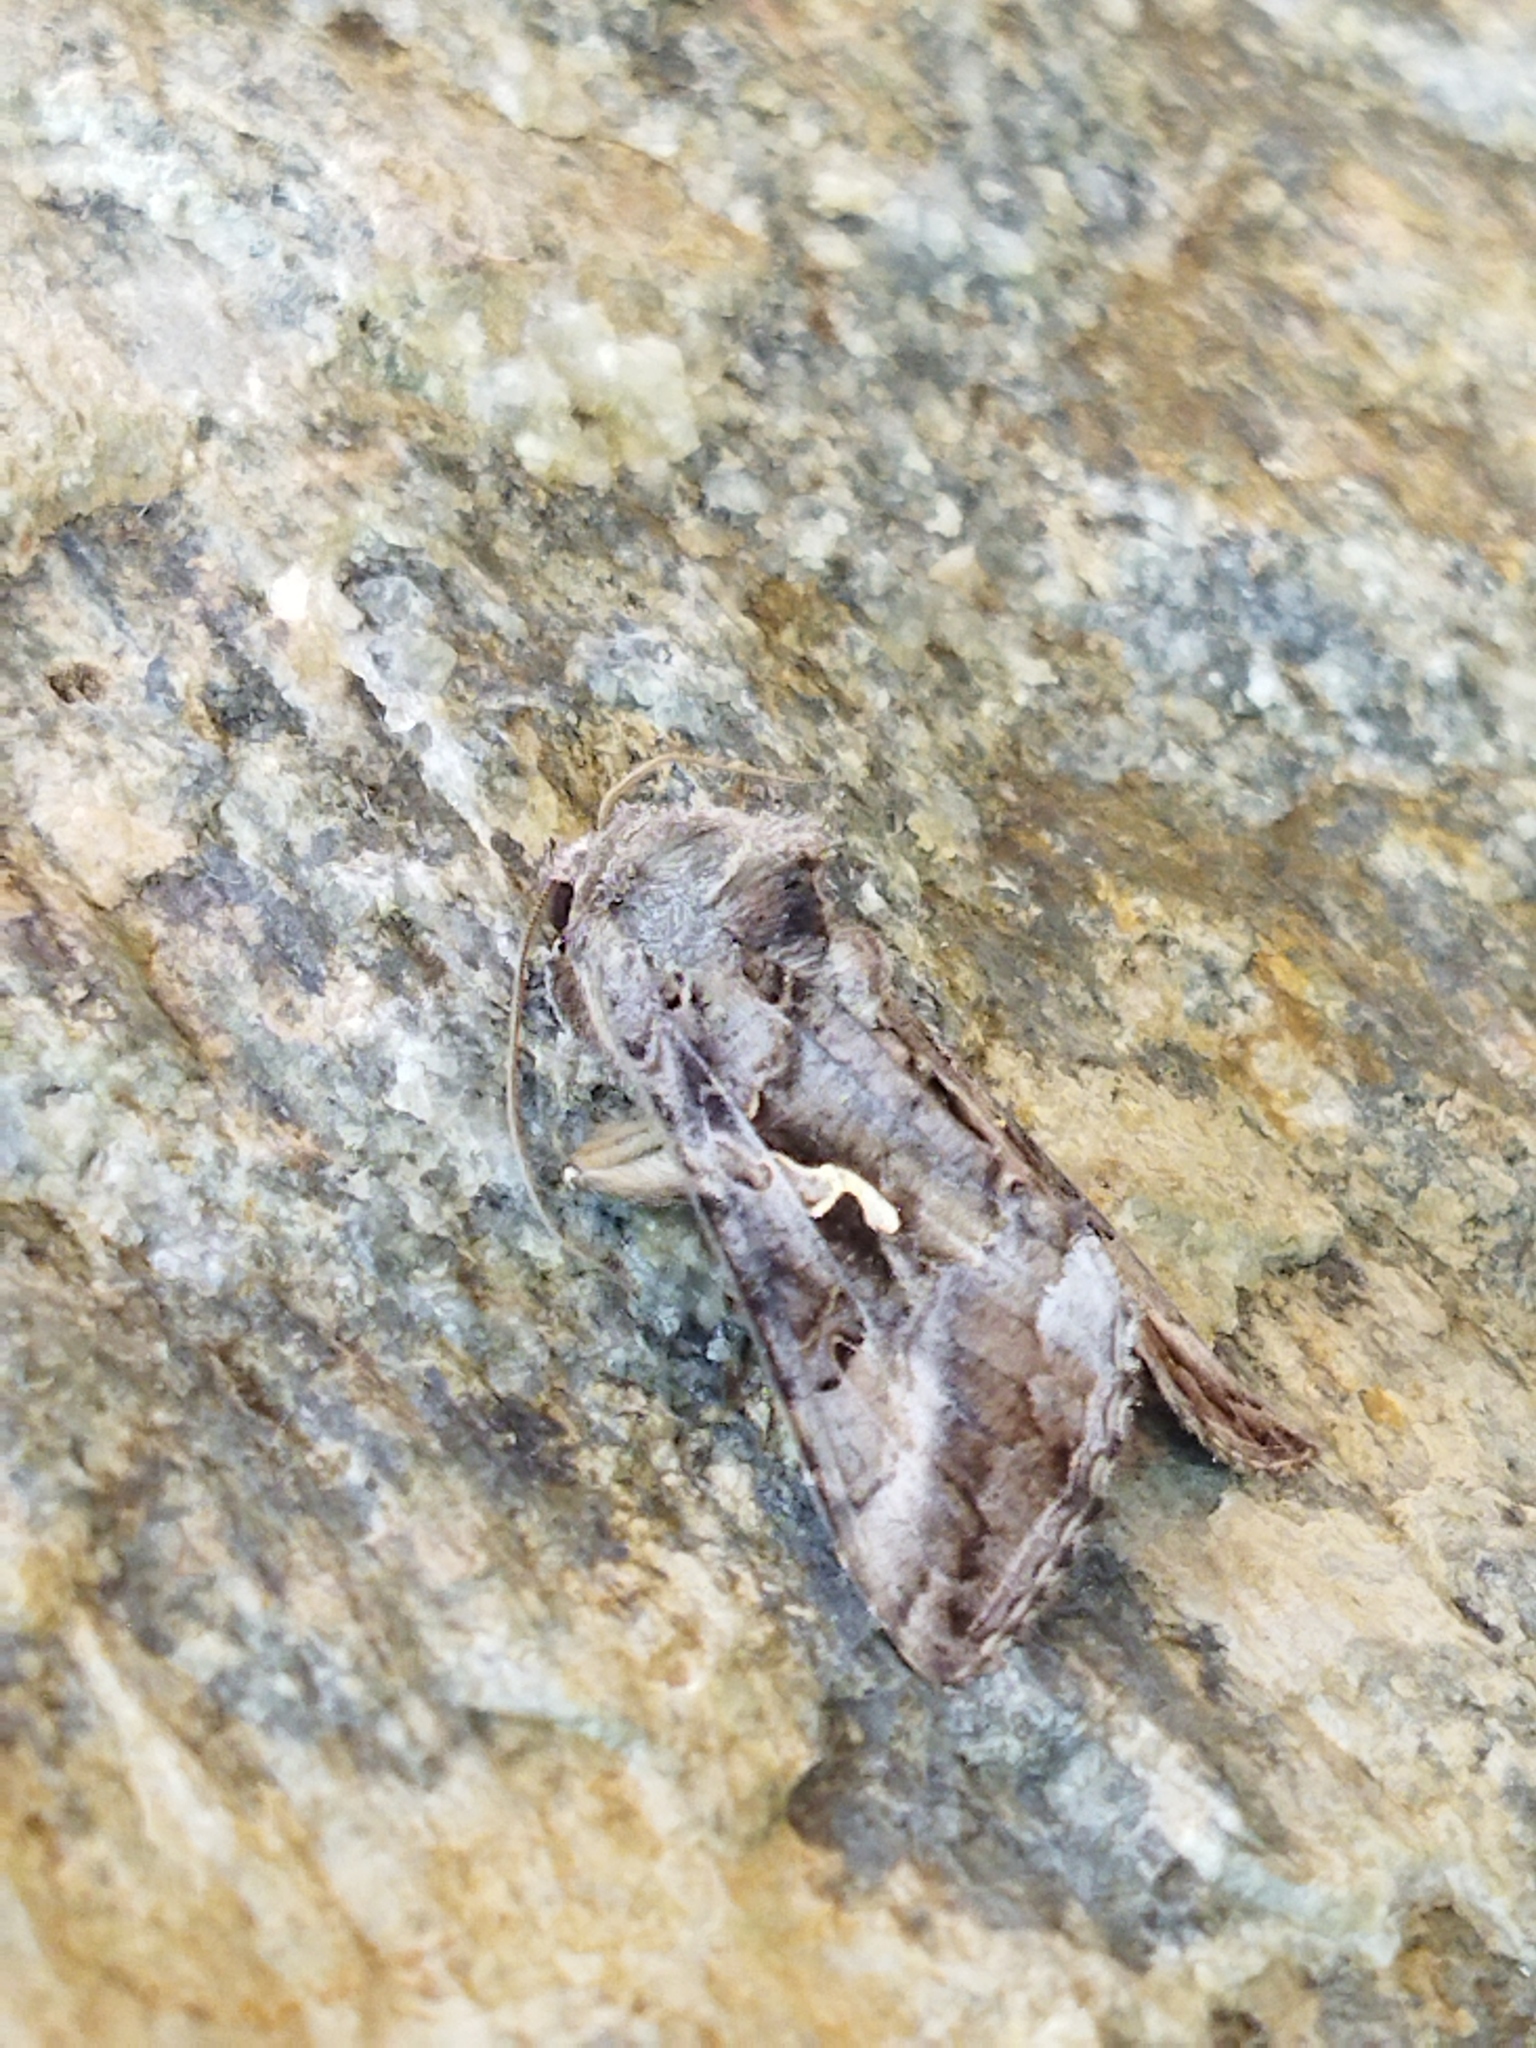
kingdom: Animalia
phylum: Arthropoda
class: Insecta
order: Lepidoptera
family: Noctuidae
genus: Autographa
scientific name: Autographa gamma
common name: Silver y
